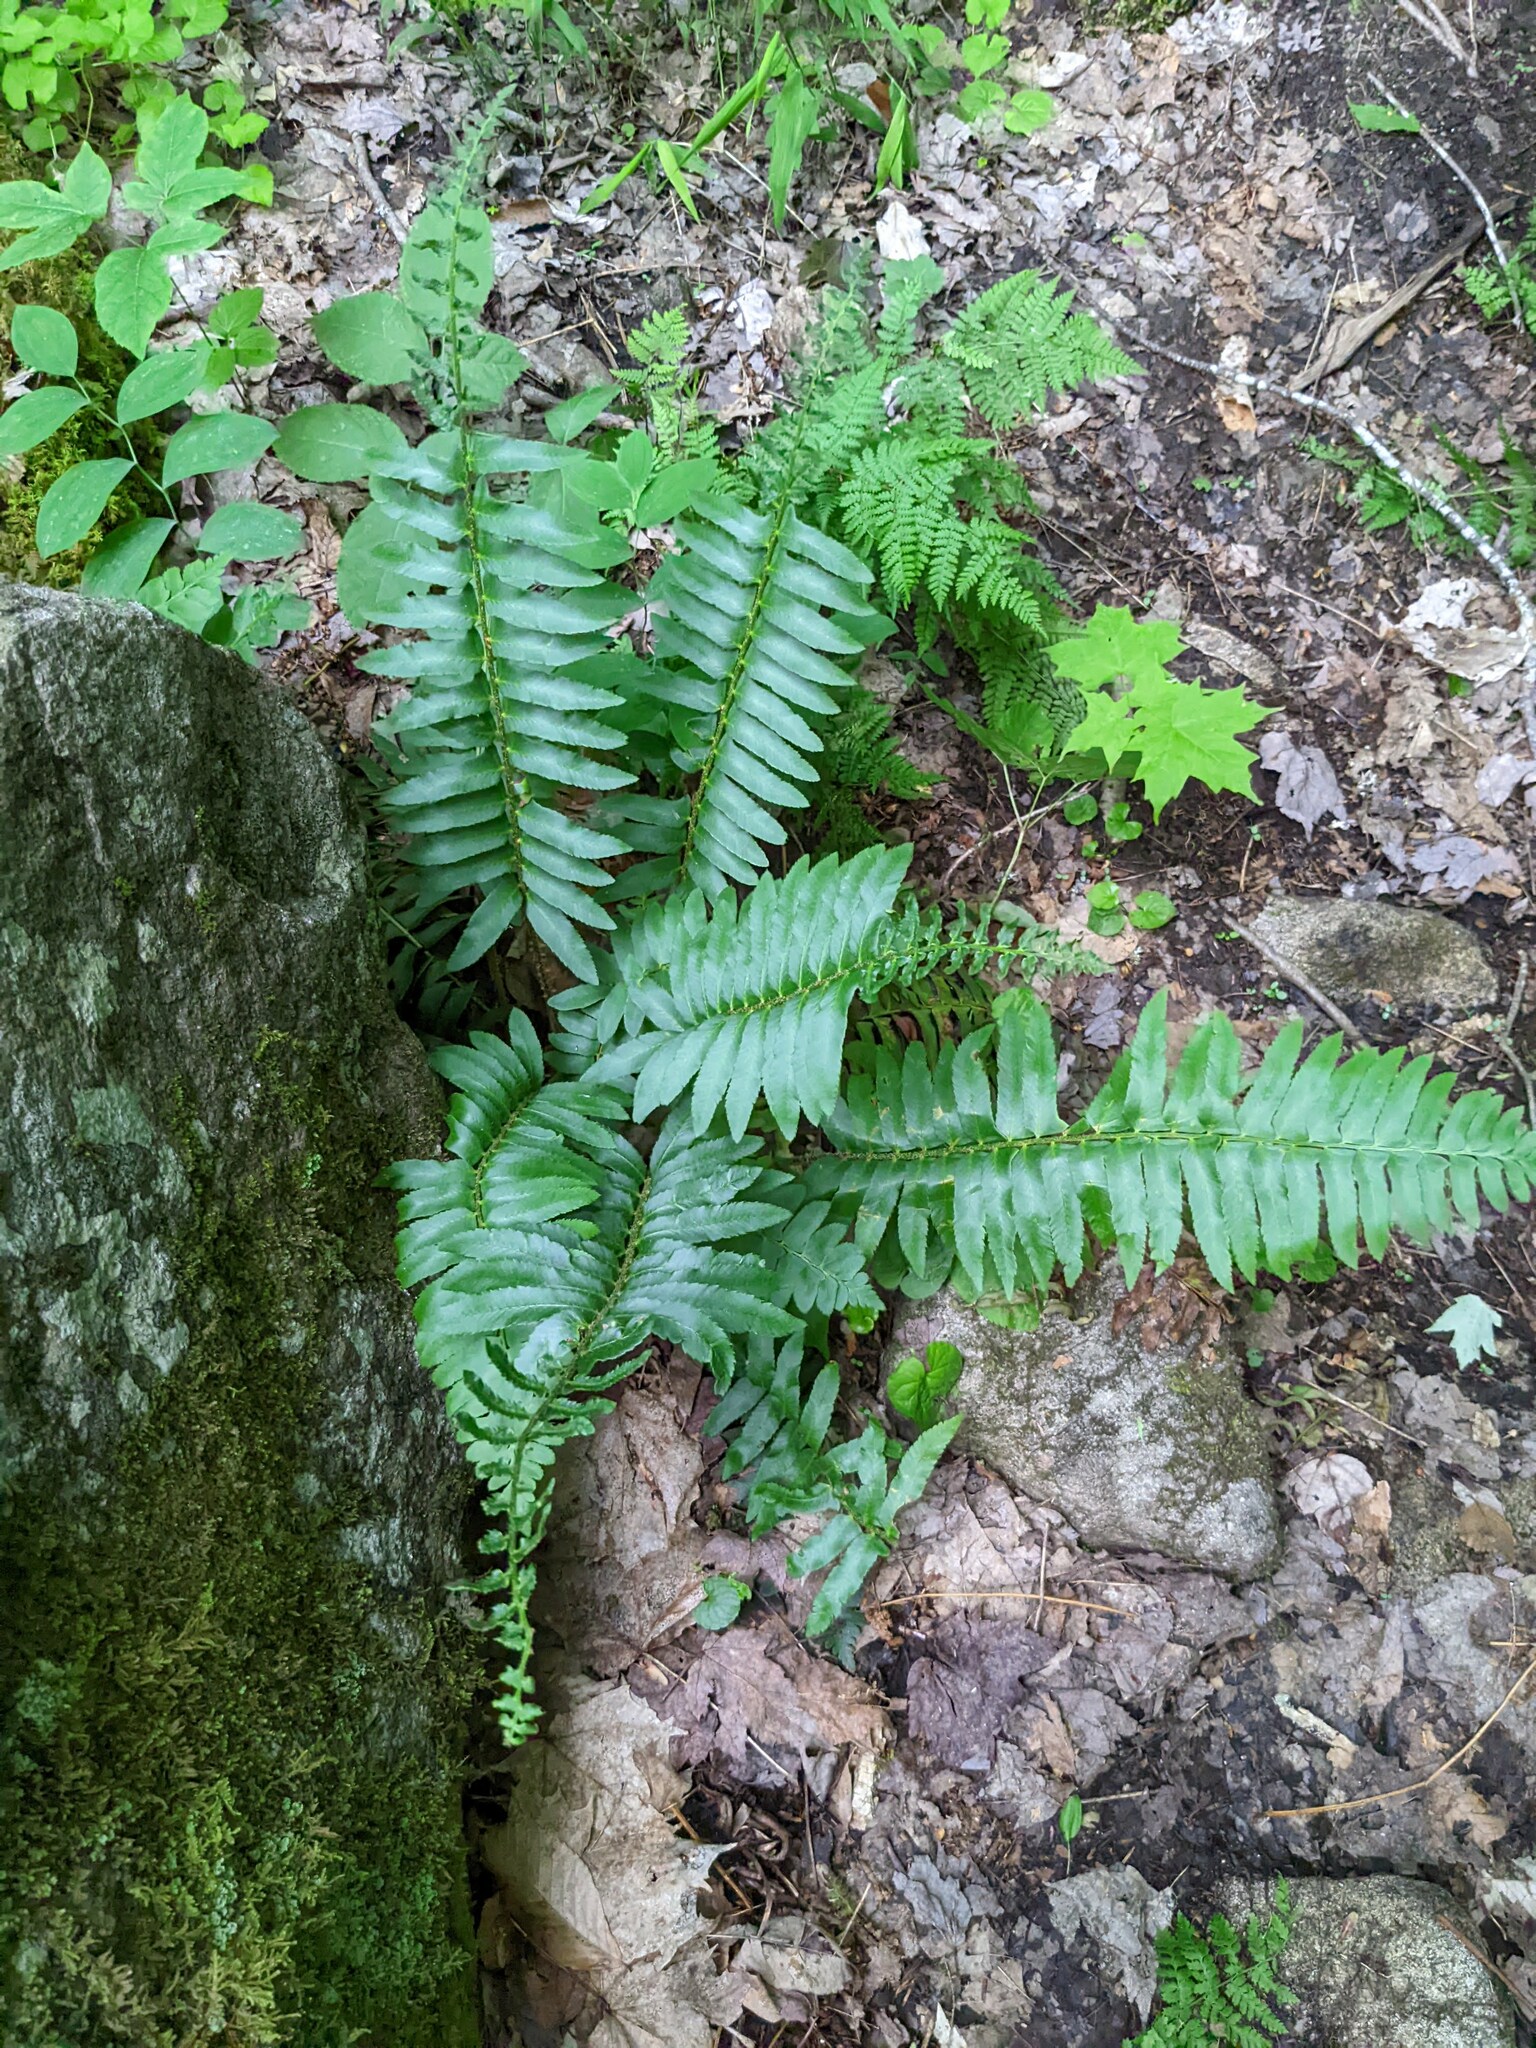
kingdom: Plantae
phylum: Tracheophyta
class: Polypodiopsida
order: Polypodiales
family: Dryopteridaceae
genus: Polystichum
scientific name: Polystichum acrostichoides
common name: Christmas fern
